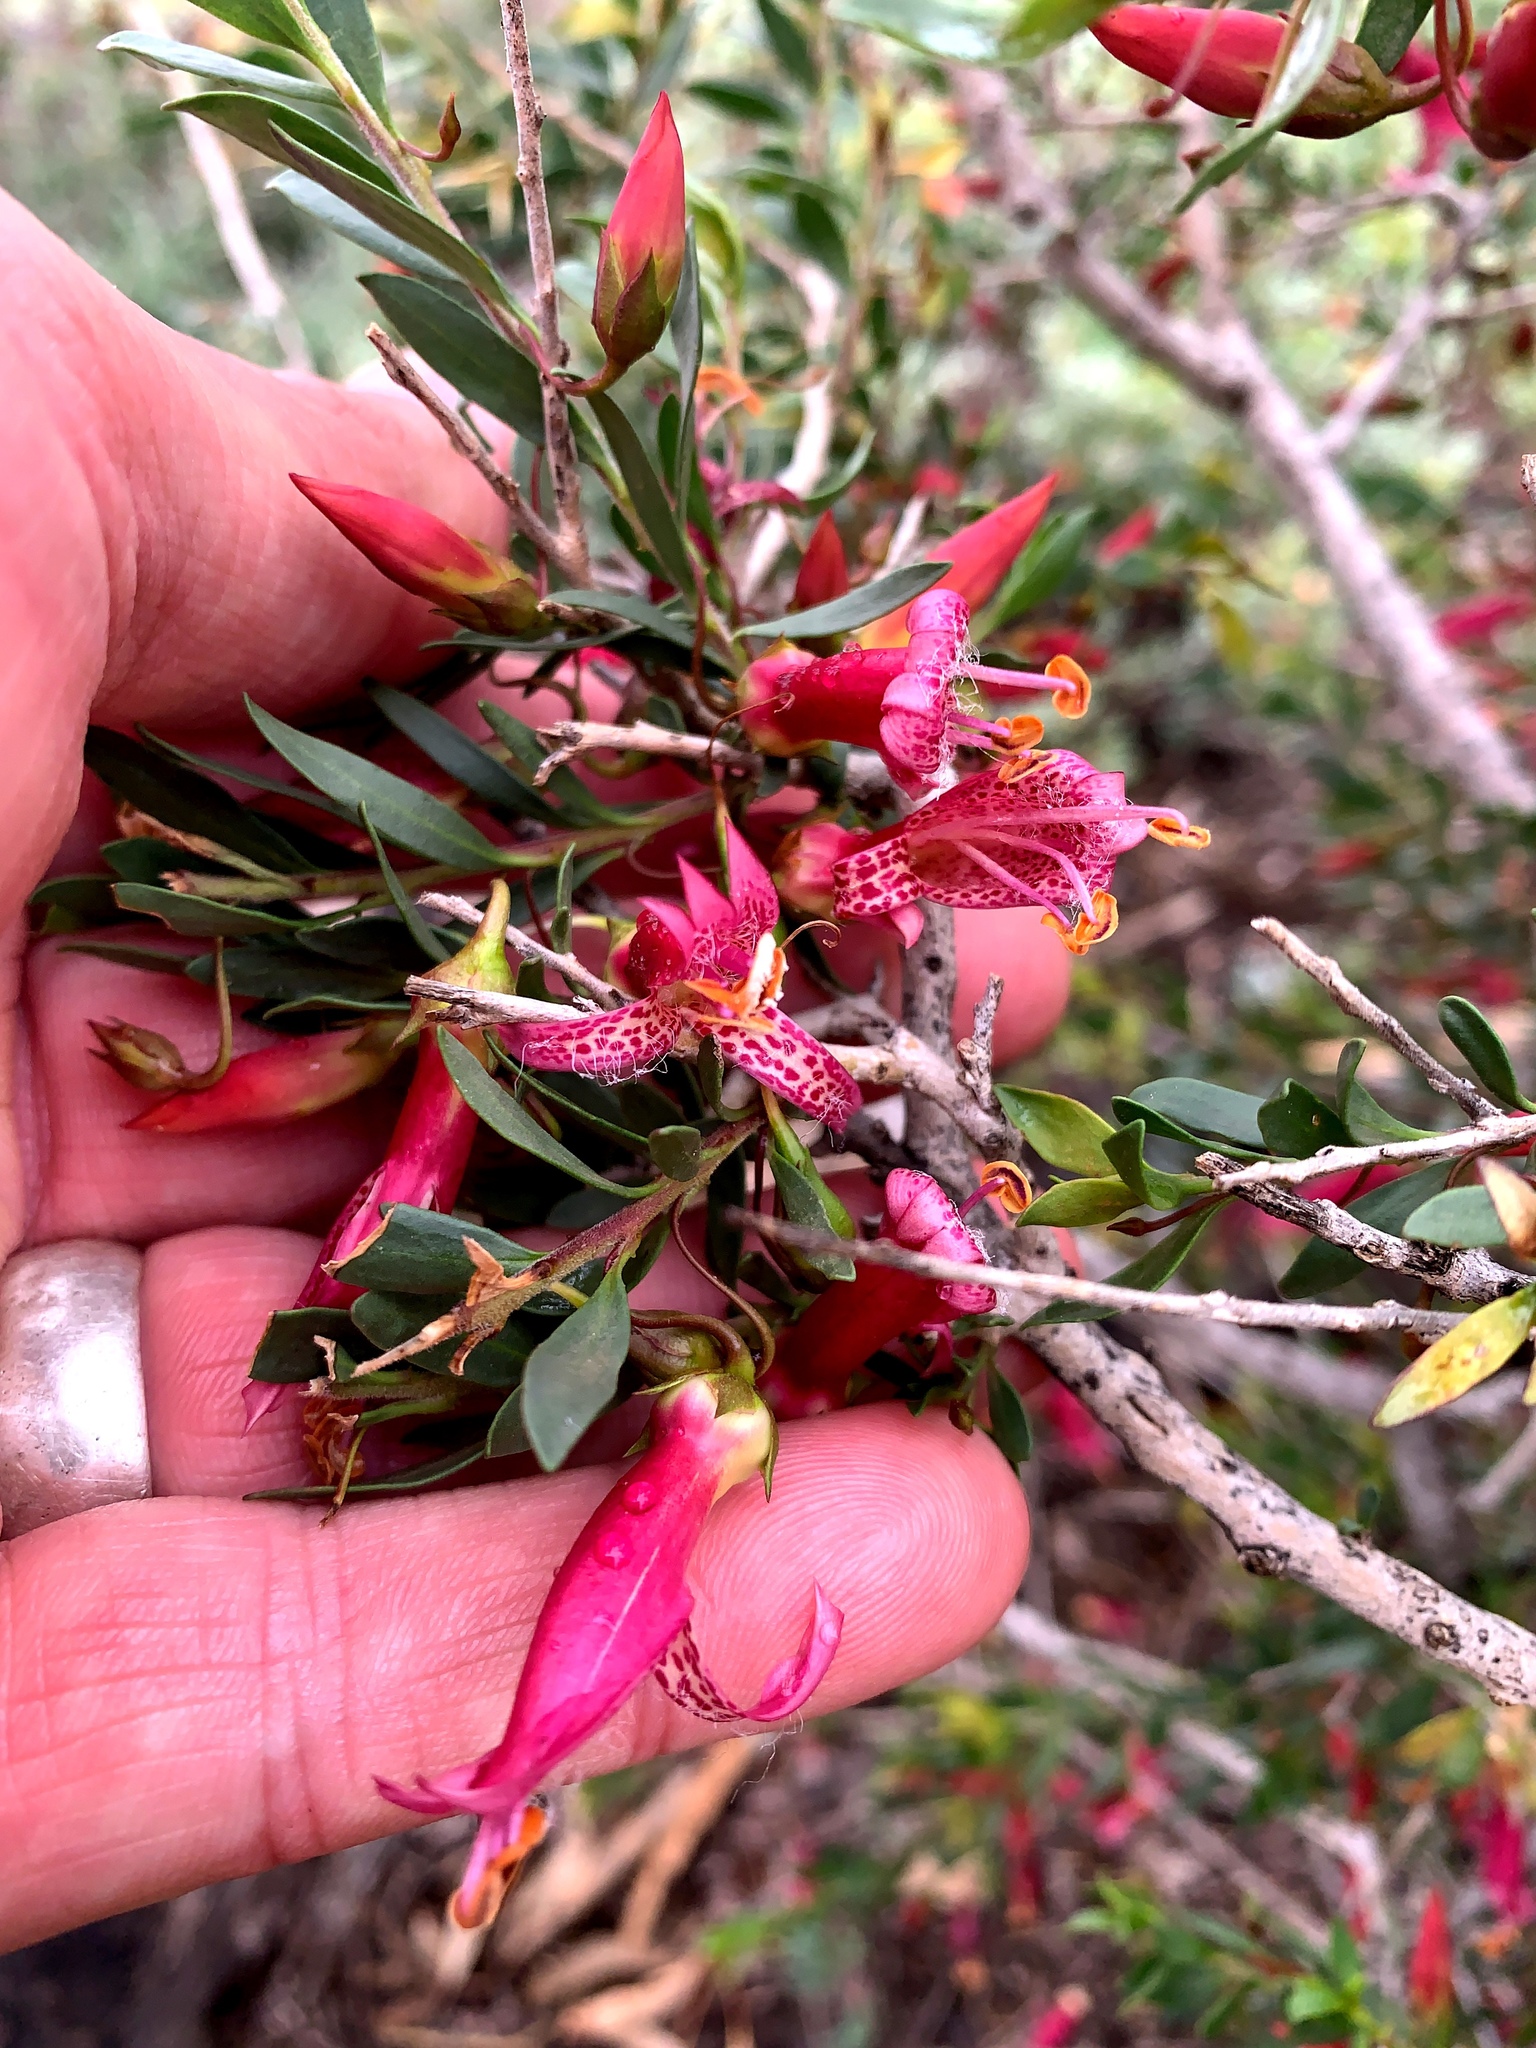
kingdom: Plantae
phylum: Tracheophyta
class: Magnoliopsida
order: Lamiales
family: Scrophulariaceae
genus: Eremophila
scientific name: Eremophila maculata
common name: Fuchsiabush
